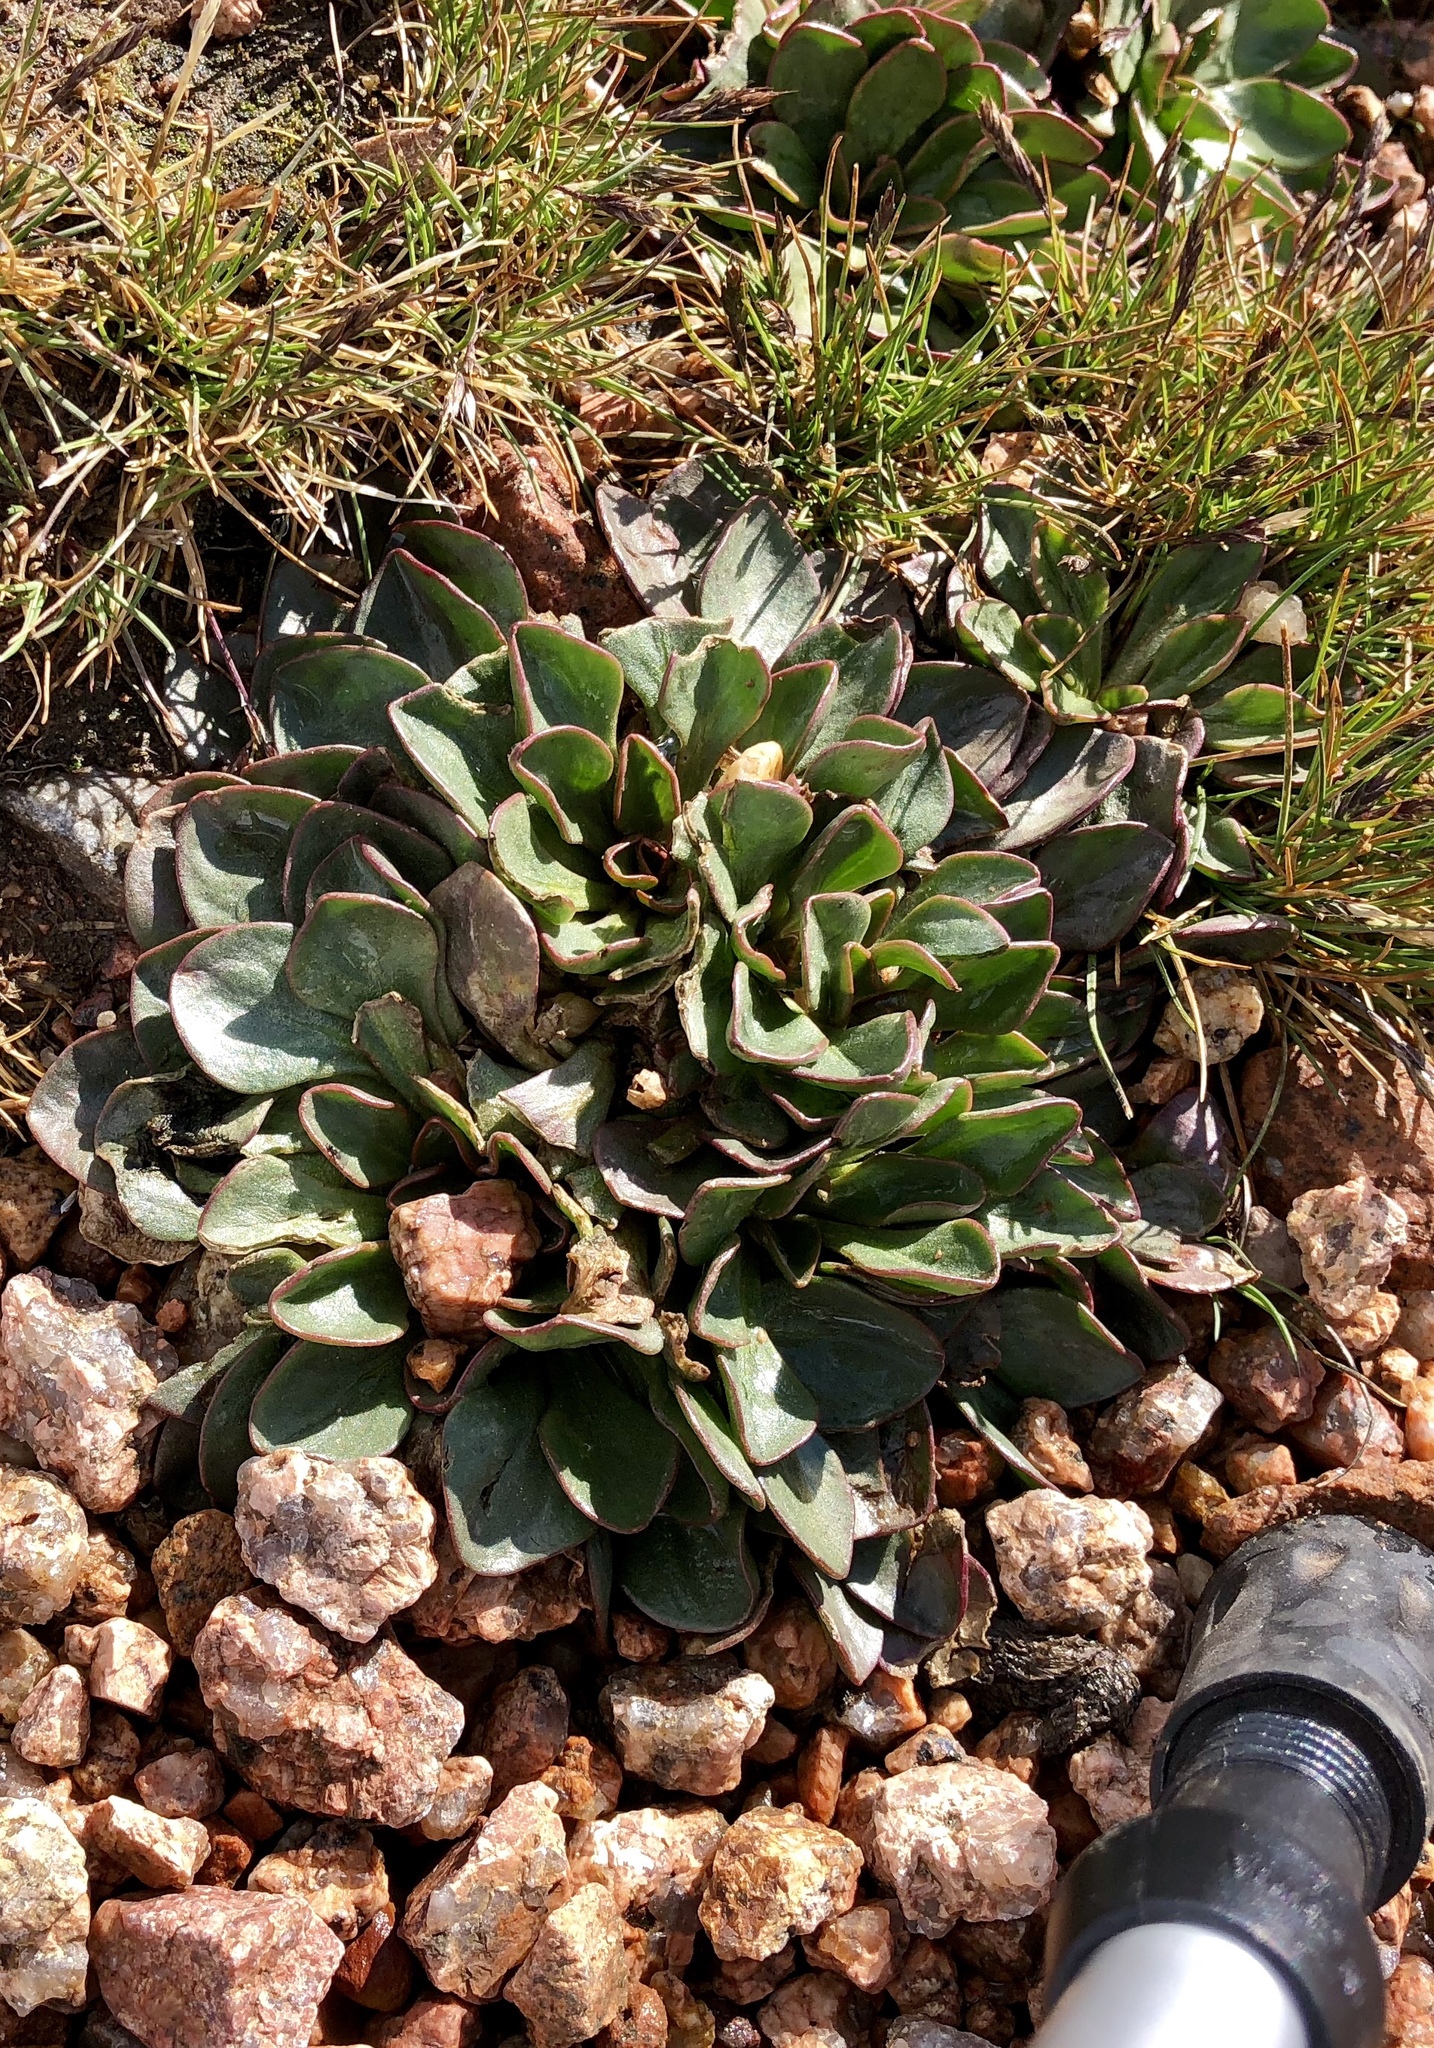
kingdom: Plantae
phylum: Tracheophyta
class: Magnoliopsida
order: Caryophyllales
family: Montiaceae
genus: Claytonia
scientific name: Claytonia megarhiza
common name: Alpine spring beauty
